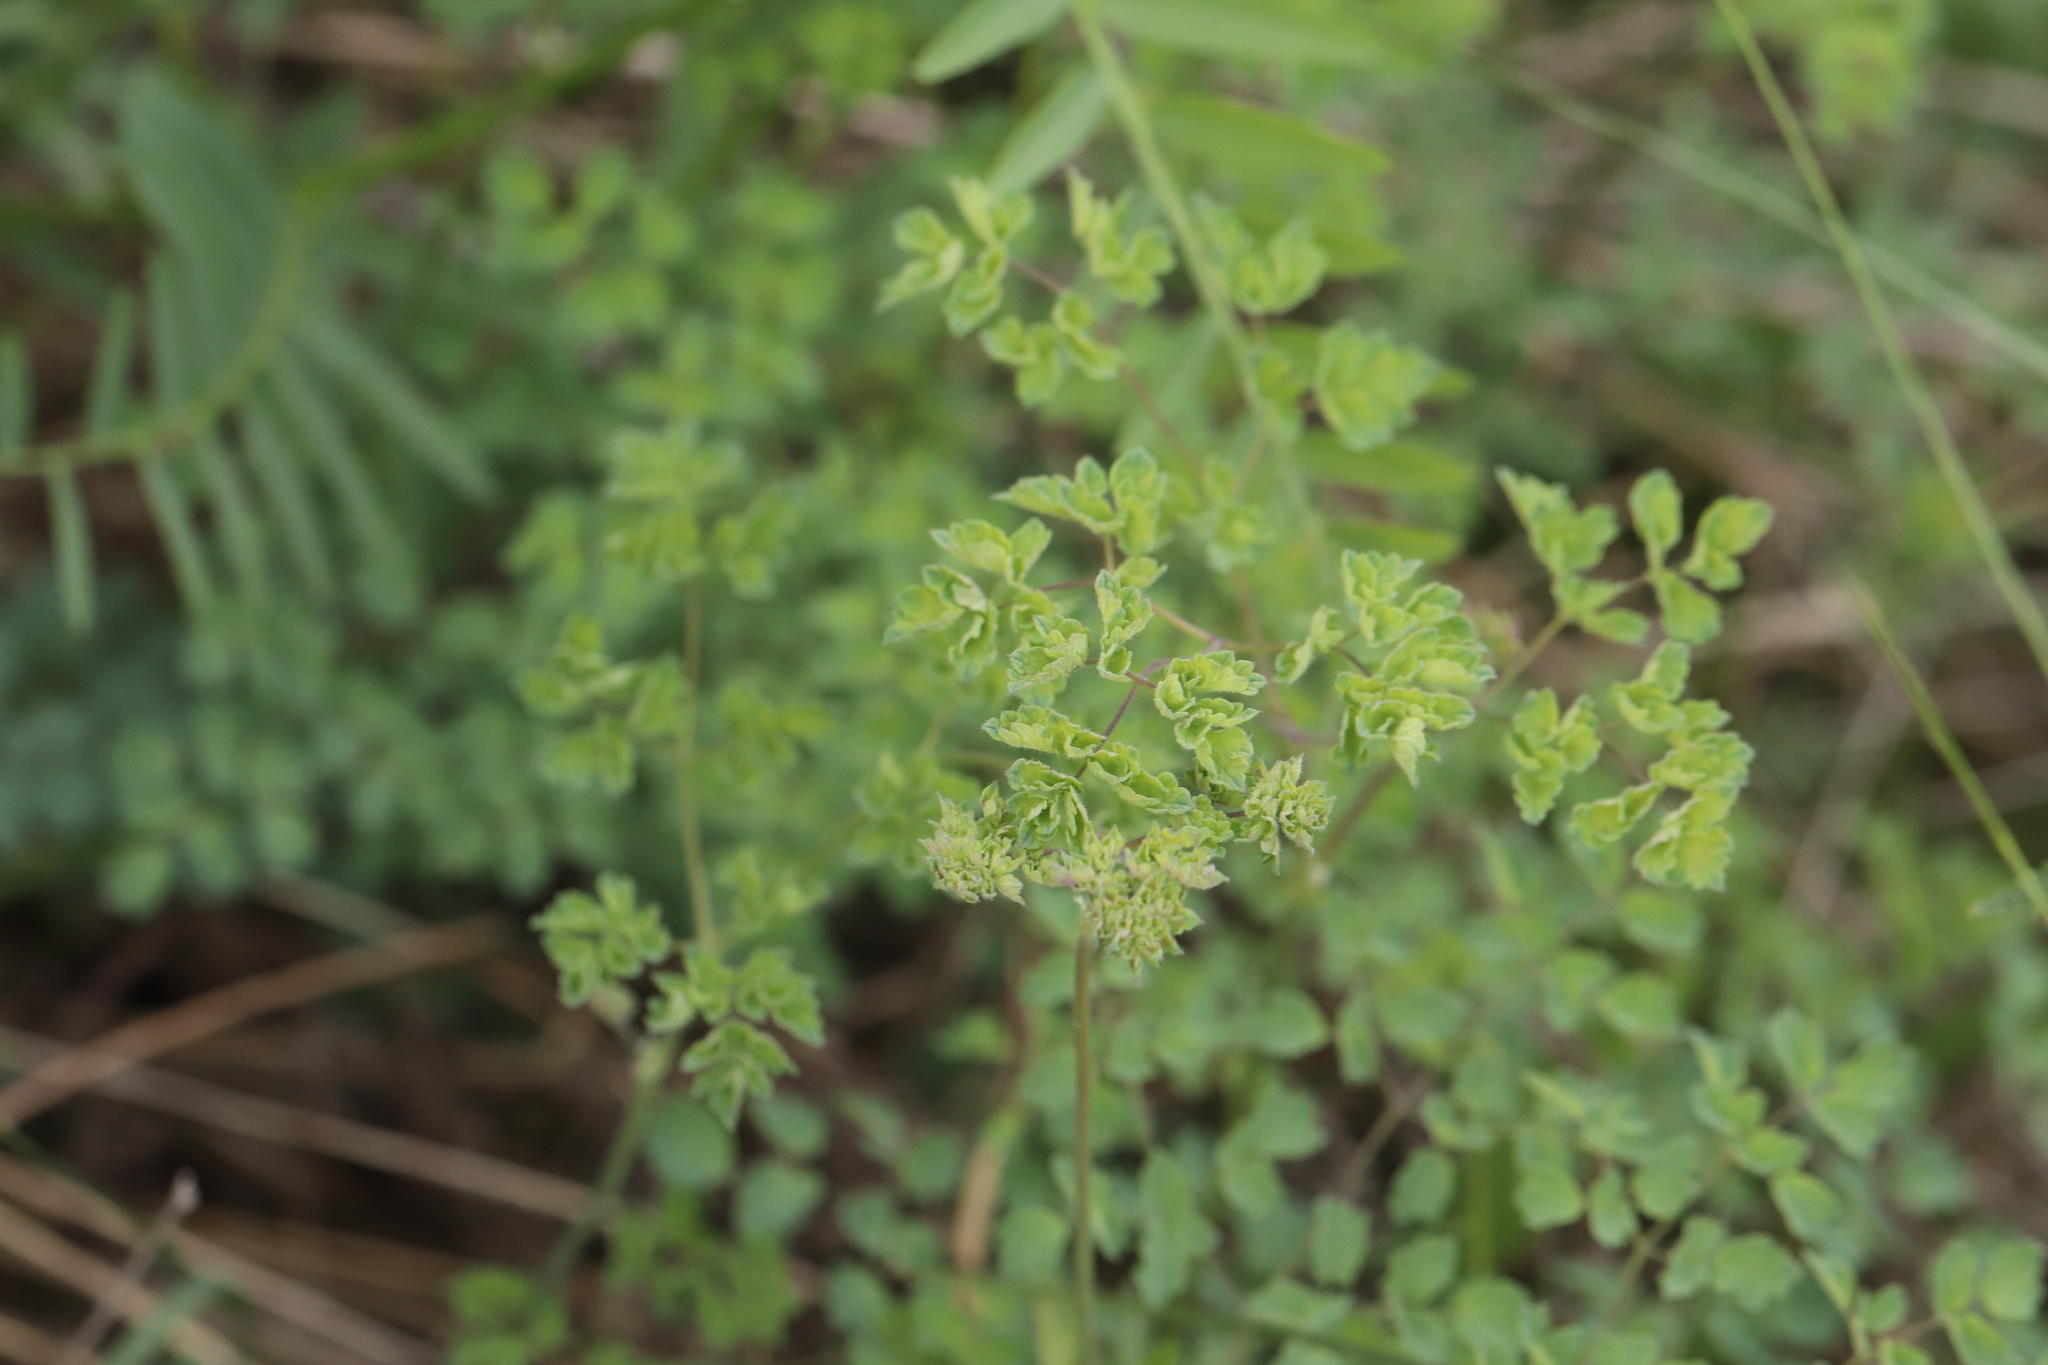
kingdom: Plantae
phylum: Tracheophyta
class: Magnoliopsida
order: Ranunculales
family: Ranunculaceae
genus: Thalictrum
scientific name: Thalictrum foetidum
